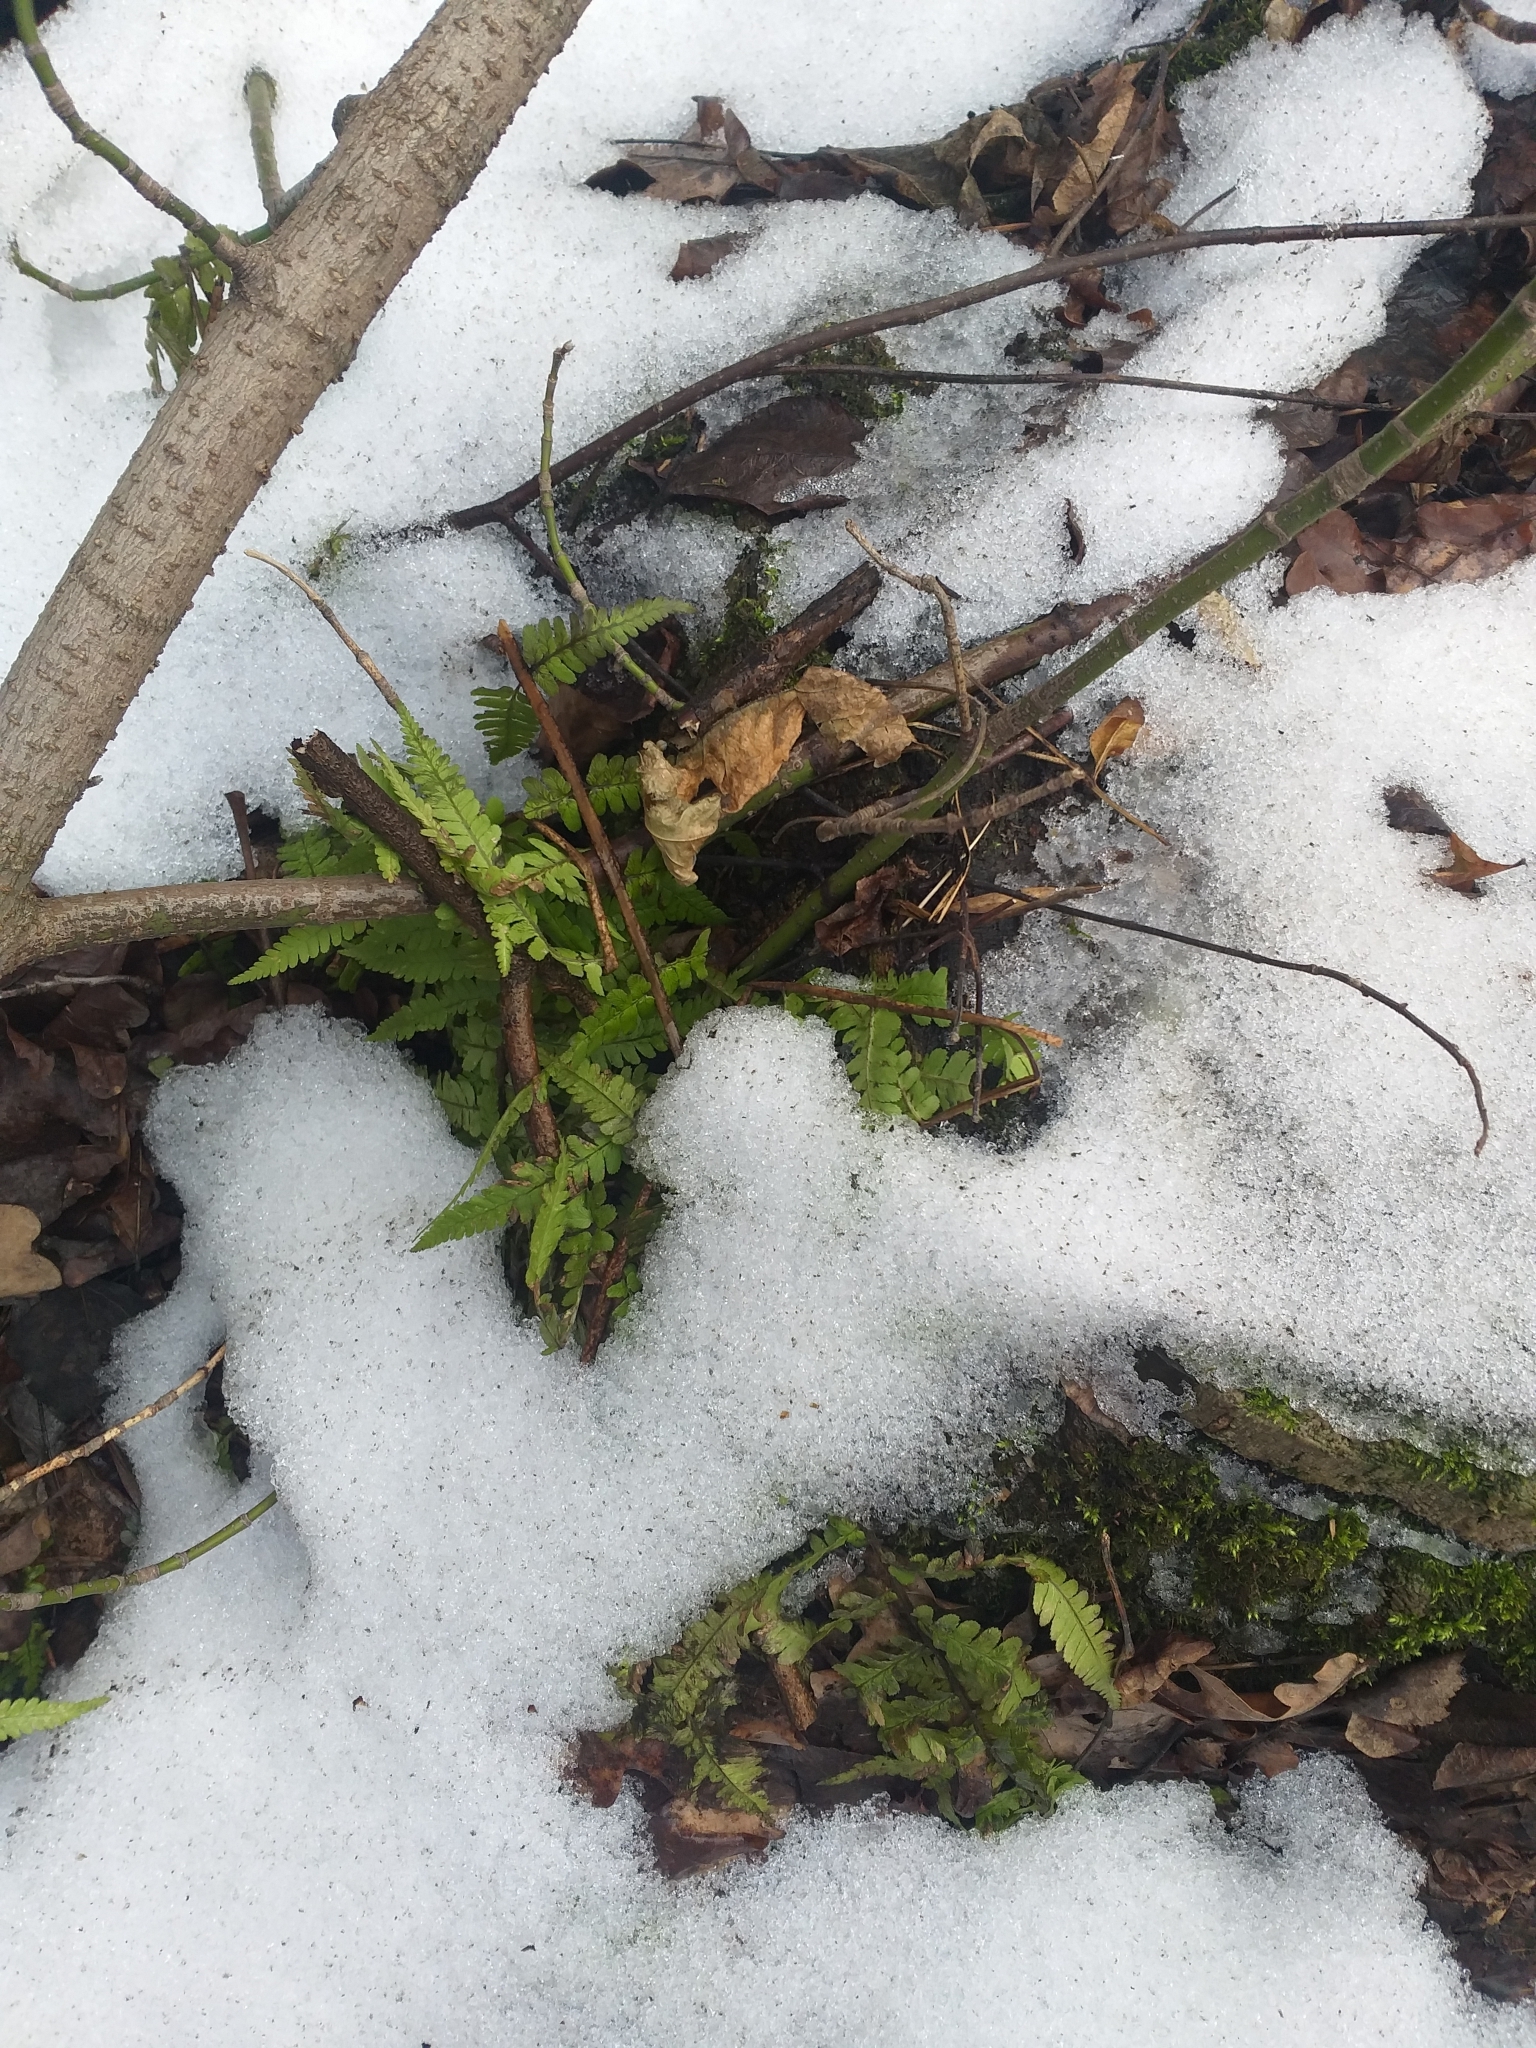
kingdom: Plantae
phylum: Tracheophyta
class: Polypodiopsida
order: Polypodiales
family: Dryopteridaceae
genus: Dryopteris
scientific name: Dryopteris filix-mas
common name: Male fern
